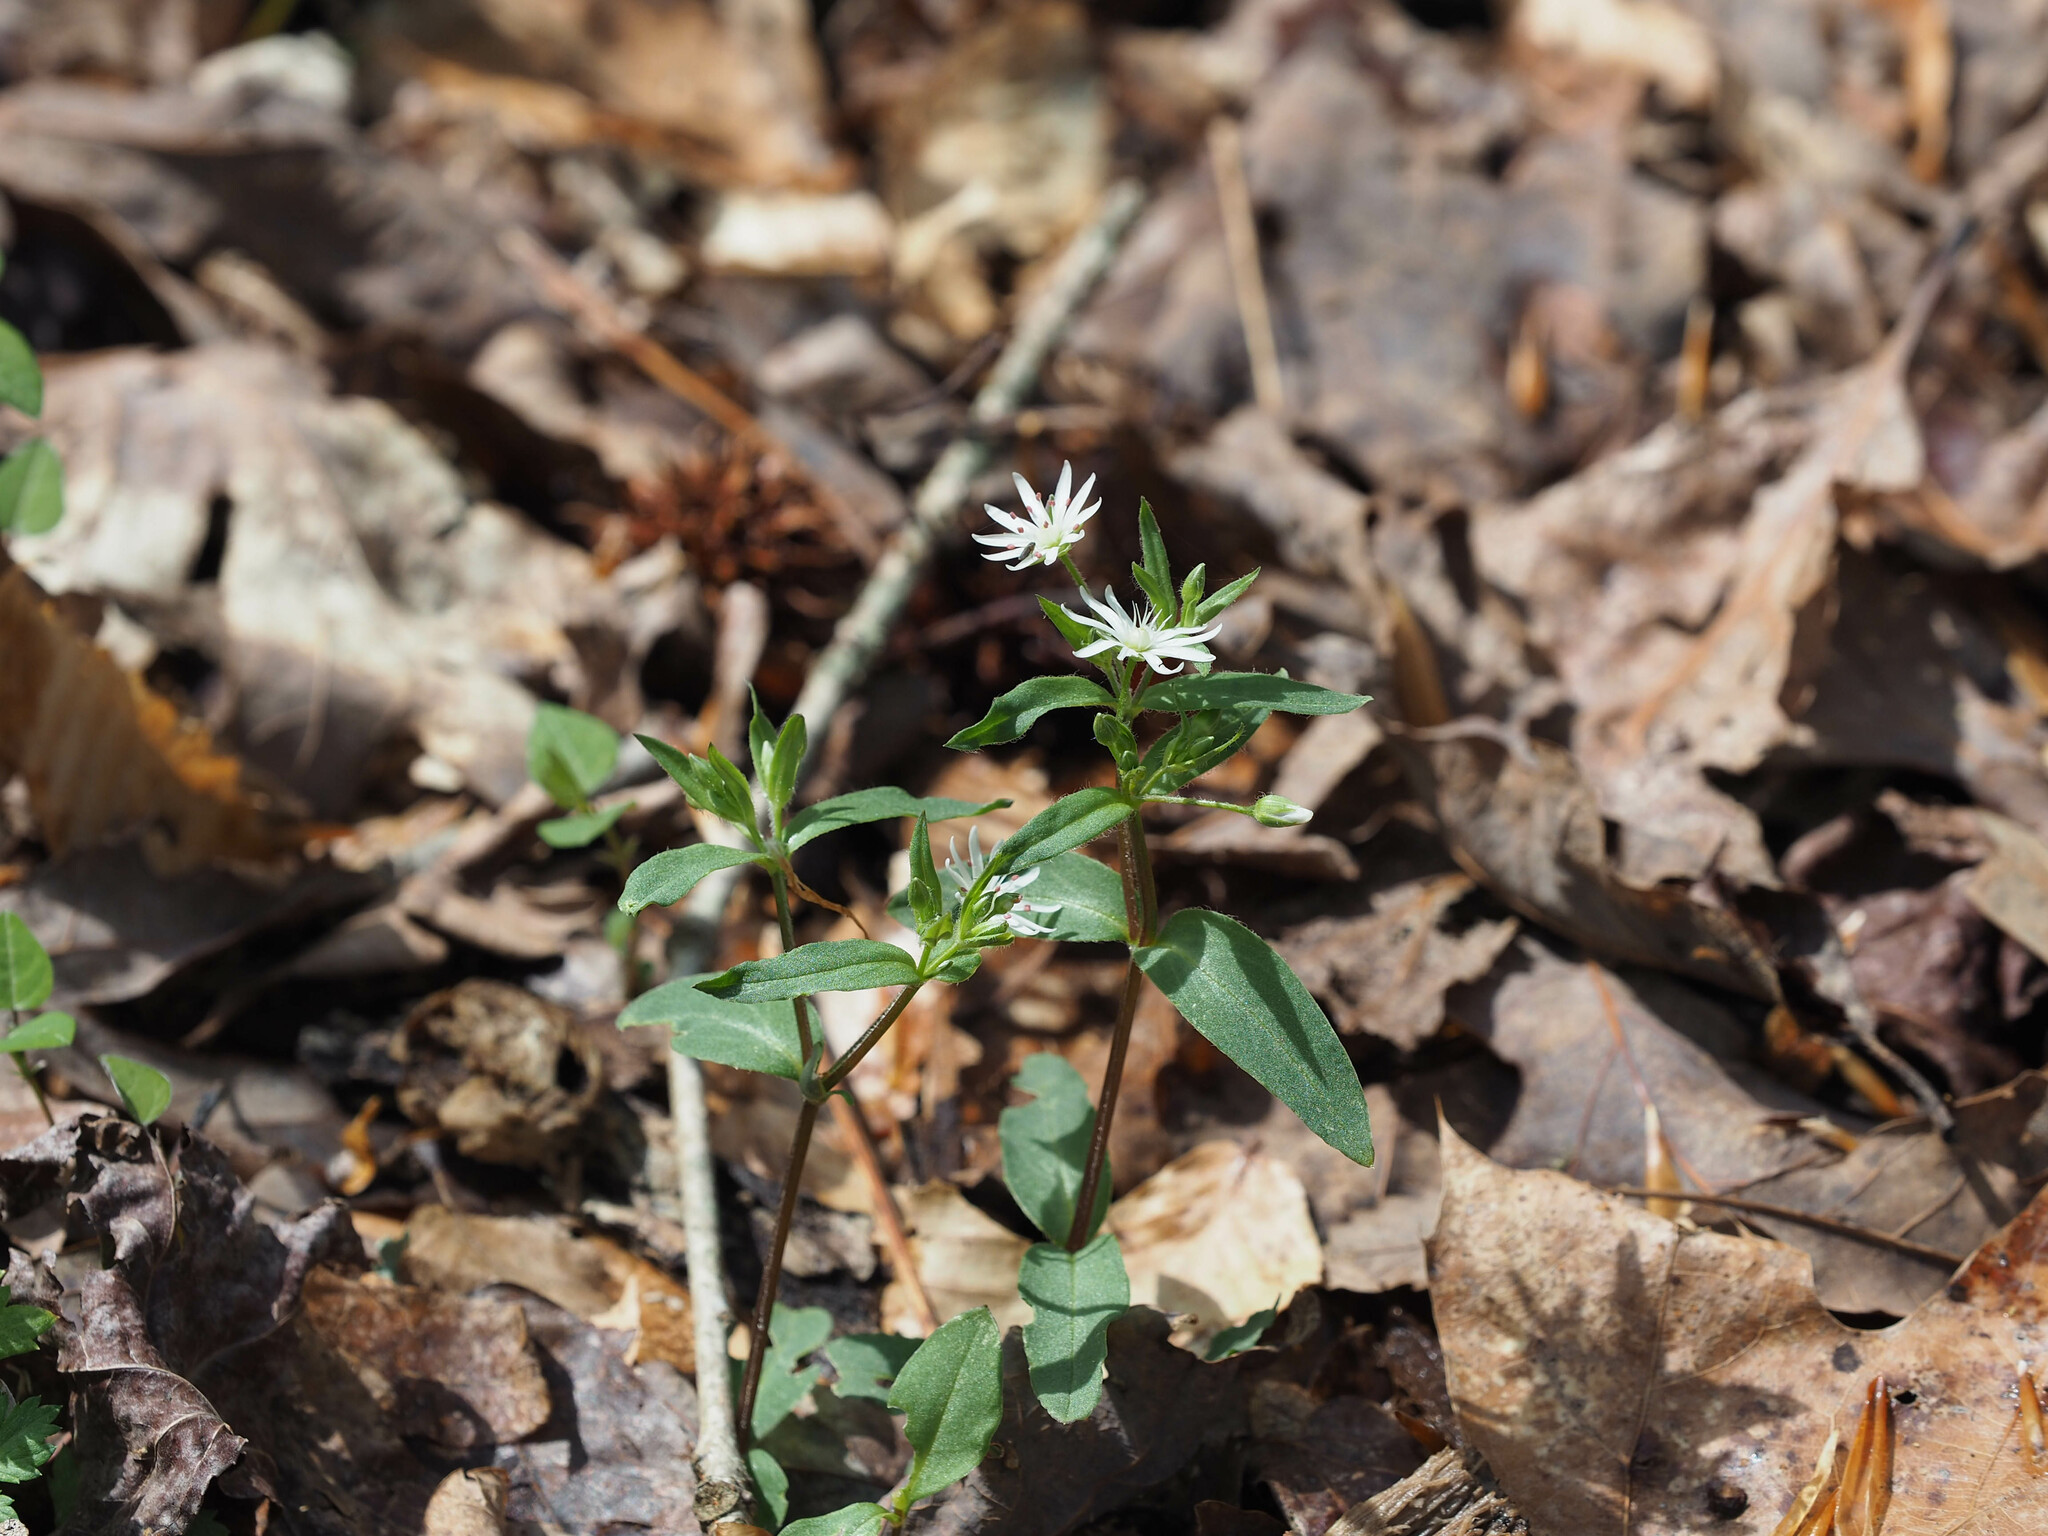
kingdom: Plantae
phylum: Tracheophyta
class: Magnoliopsida
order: Caryophyllales
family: Caryophyllaceae
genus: Stellaria
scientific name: Stellaria pubera
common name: Star chickweed
